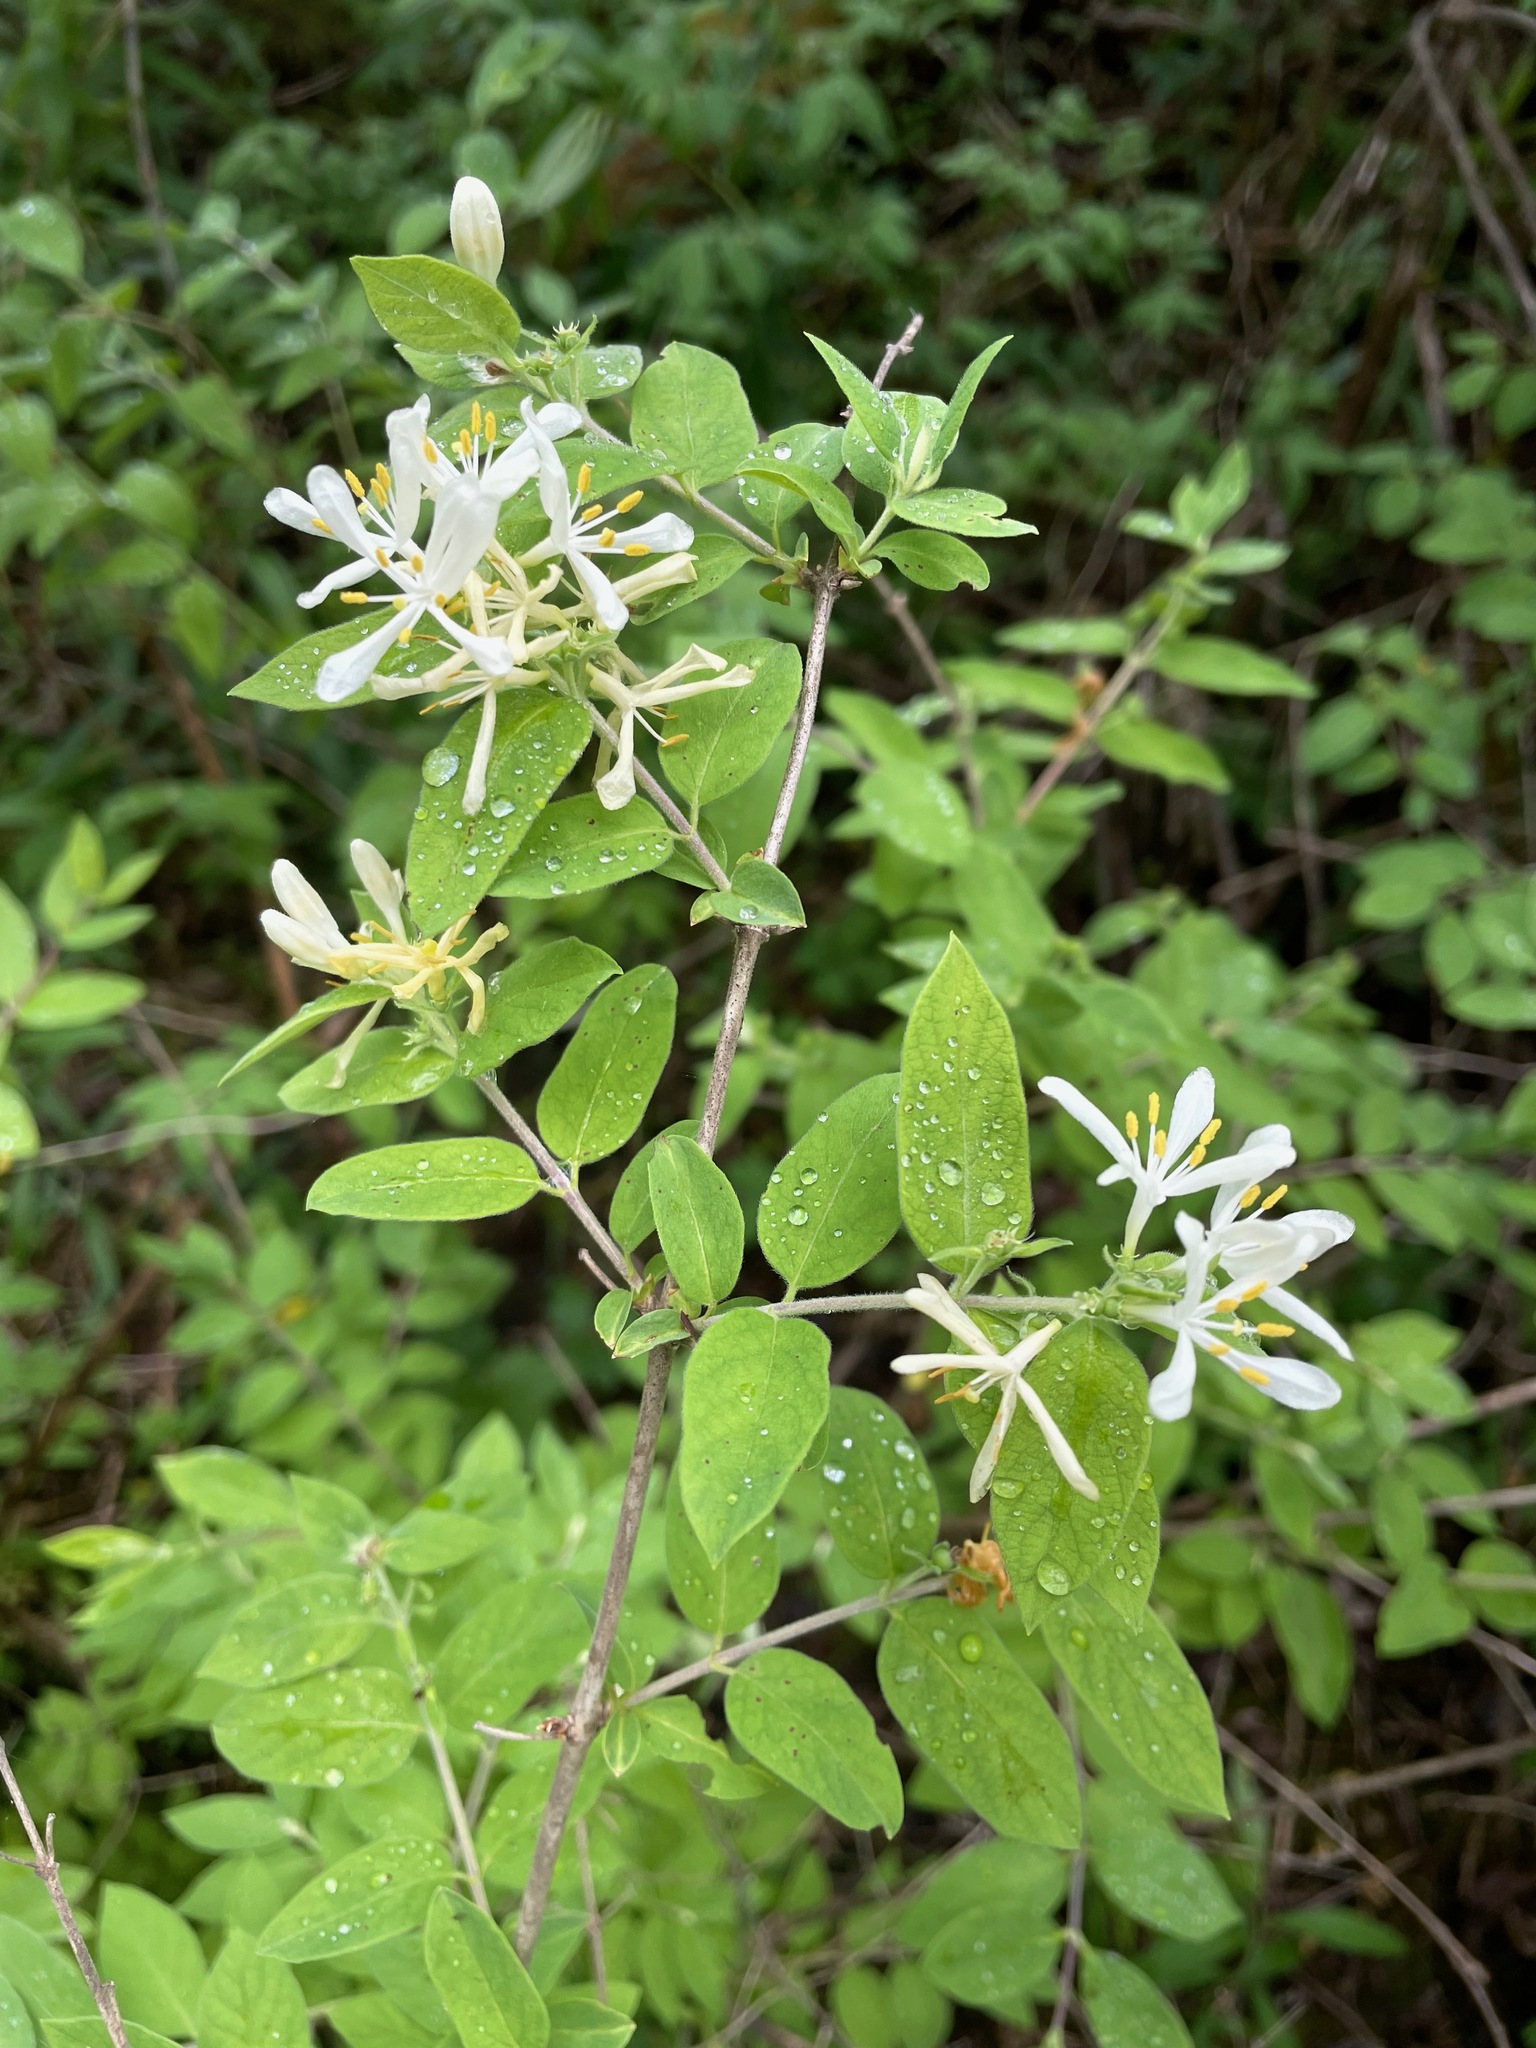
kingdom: Plantae
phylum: Tracheophyta
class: Magnoliopsida
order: Dipsacales
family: Caprifoliaceae
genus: Lonicera
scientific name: Lonicera
